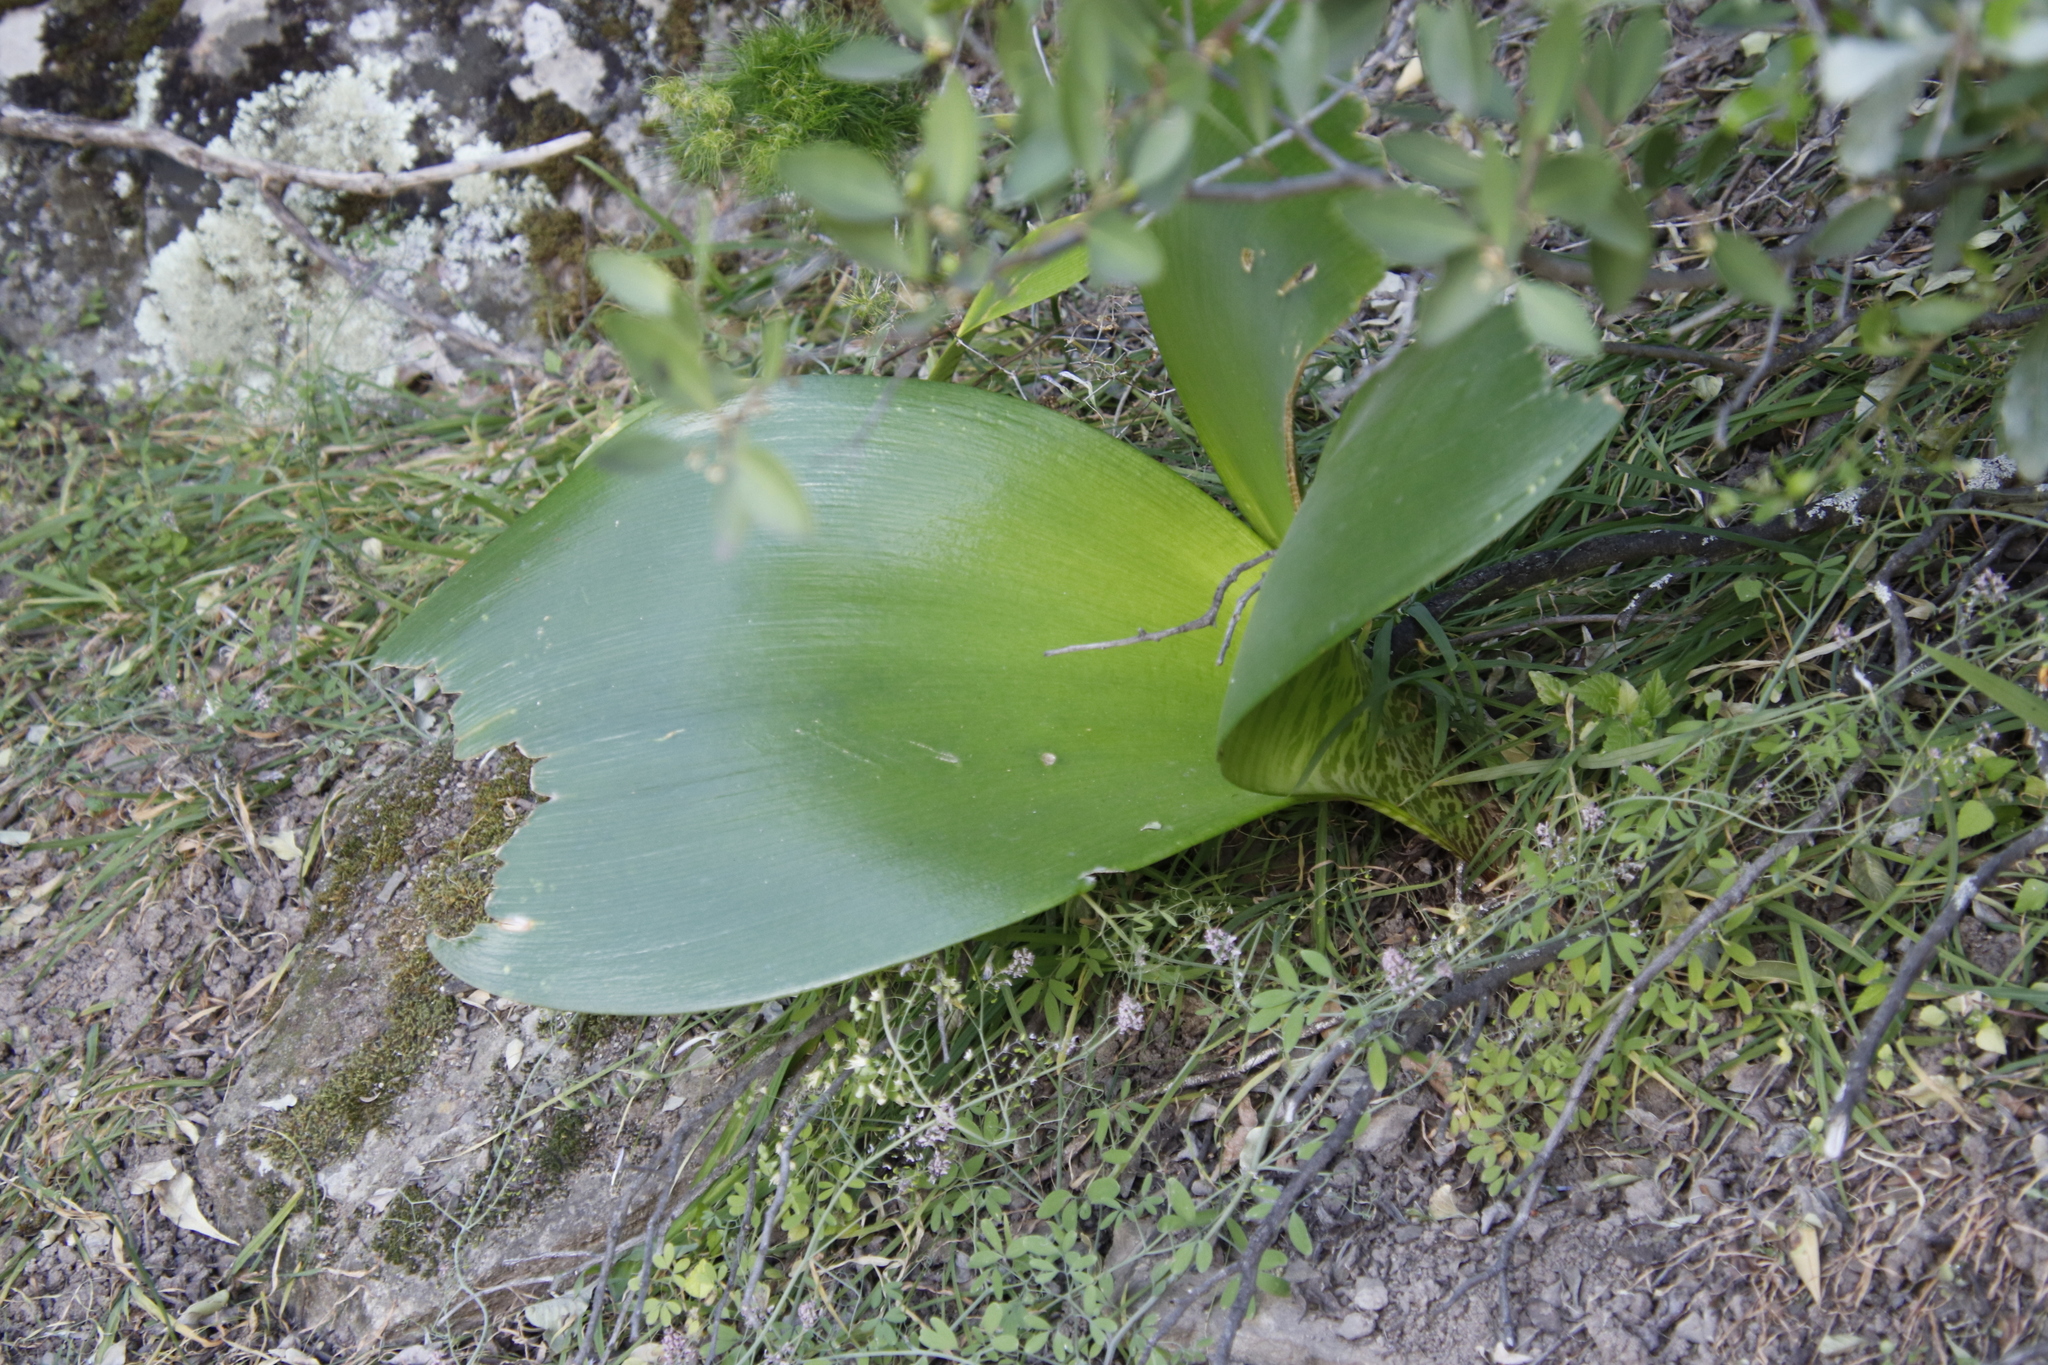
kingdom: Plantae
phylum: Tracheophyta
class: Liliopsida
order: Asparagales
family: Amaryllidaceae
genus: Haemanthus
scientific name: Haemanthus coccineus
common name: Cape-tulip
